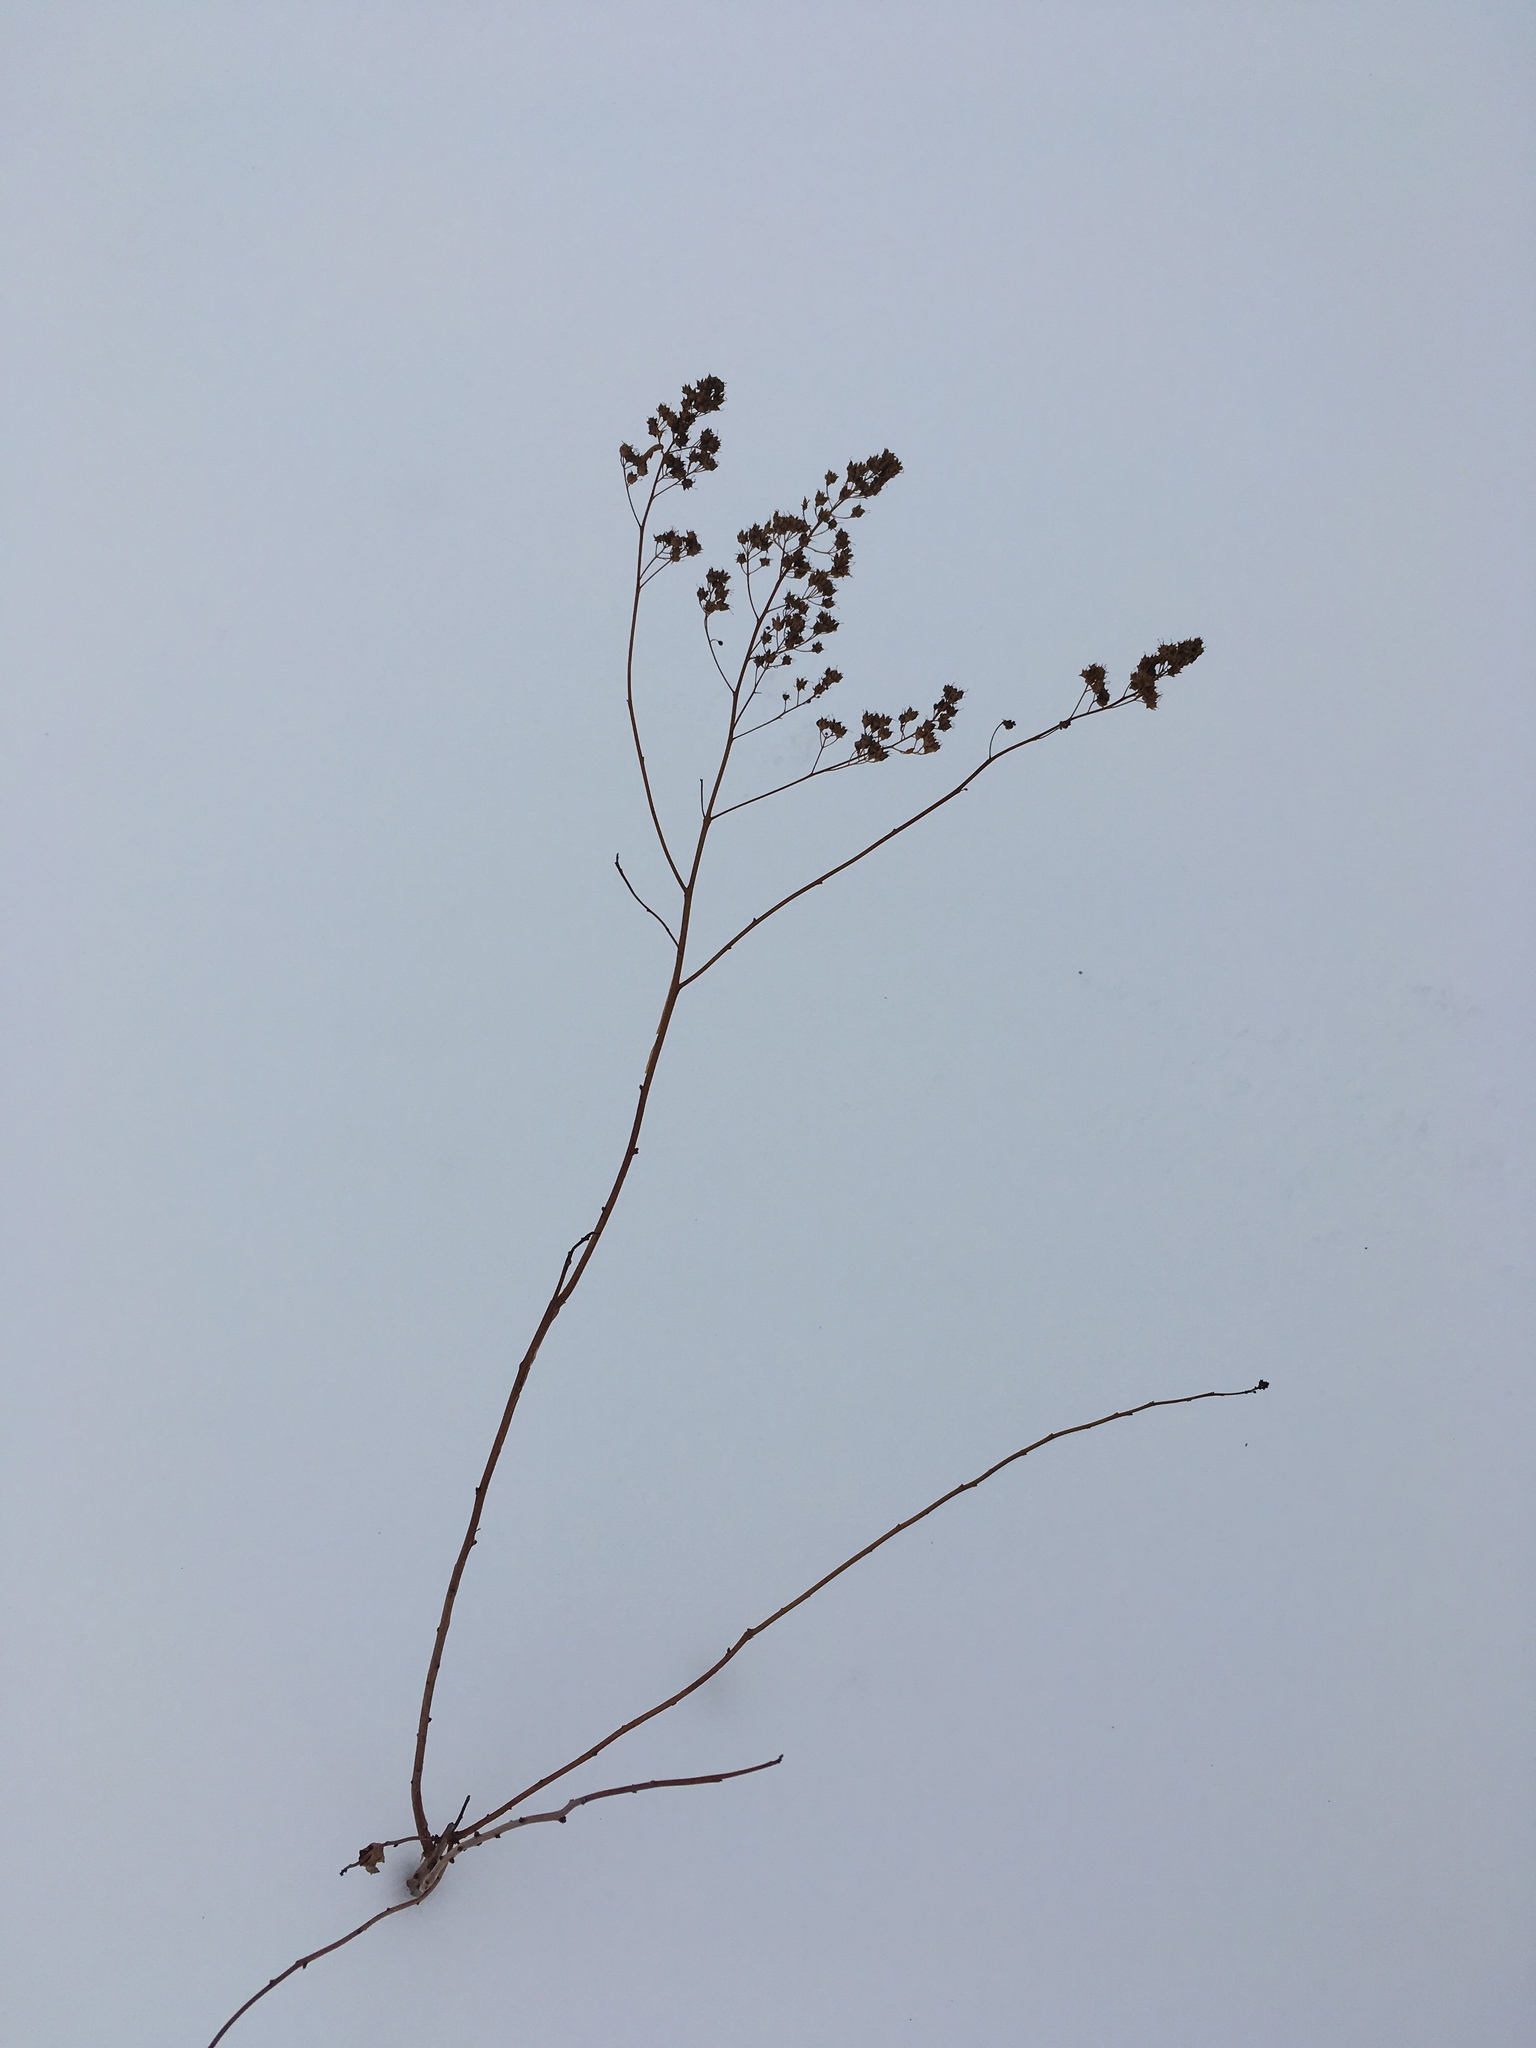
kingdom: Plantae
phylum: Tracheophyta
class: Magnoliopsida
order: Rosales
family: Rosaceae
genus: Spiraea
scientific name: Spiraea alba
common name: Pale bridewort
